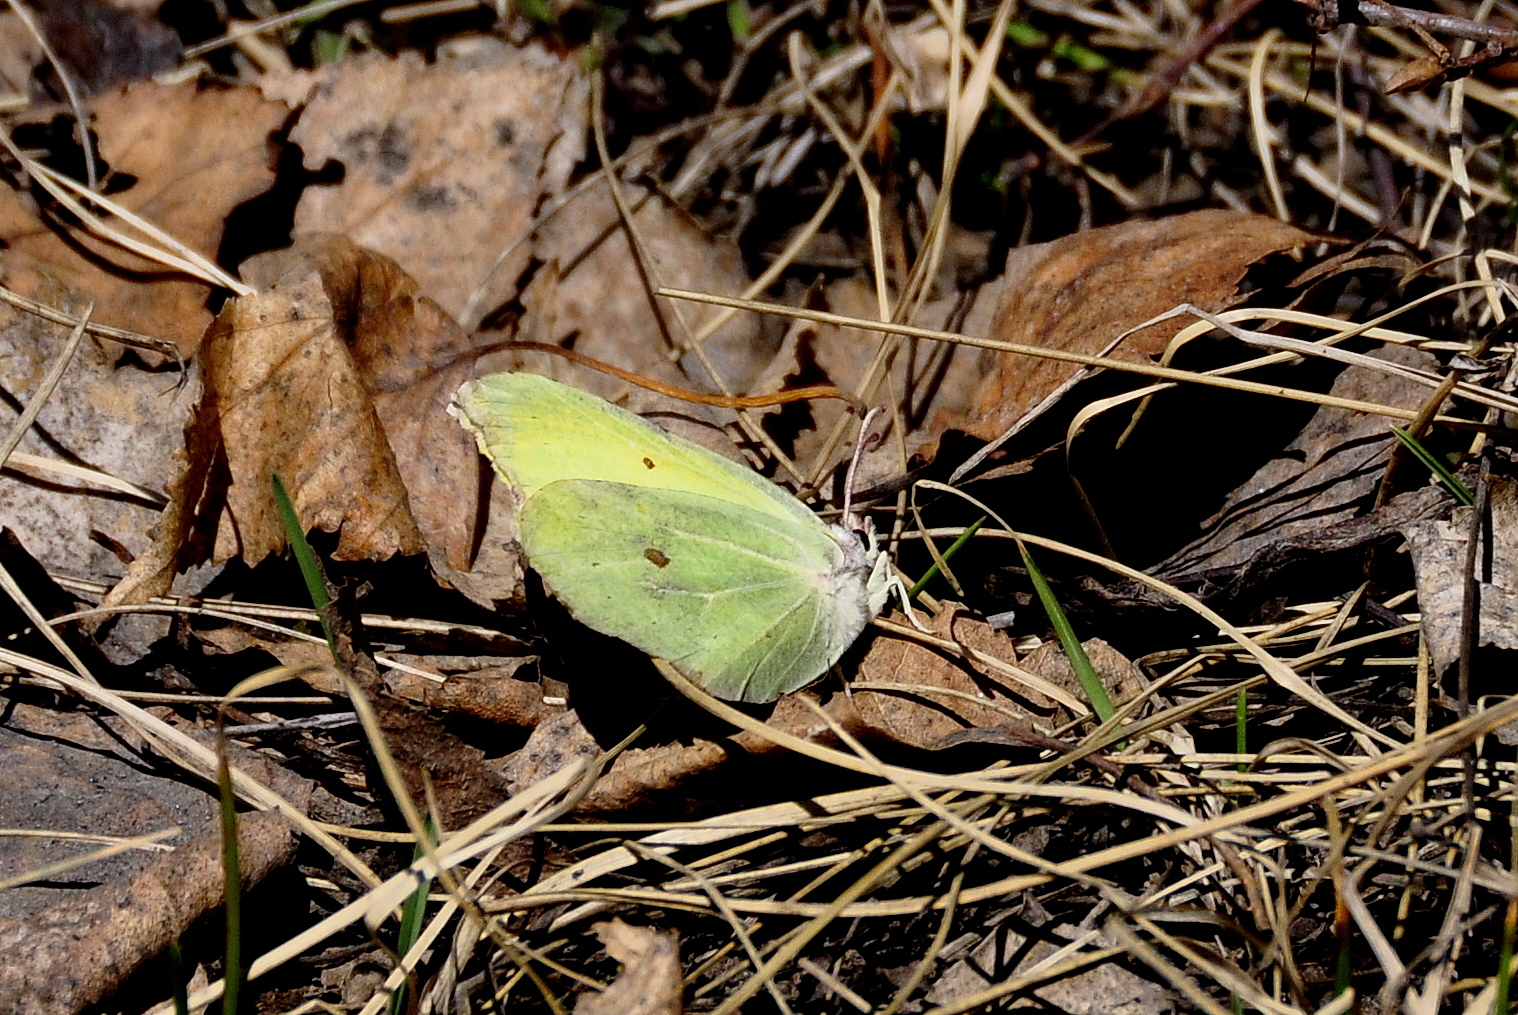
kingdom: Animalia
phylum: Arthropoda
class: Insecta
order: Lepidoptera
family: Pieridae
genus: Gonepteryx
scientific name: Gonepteryx rhamni
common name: Brimstone
